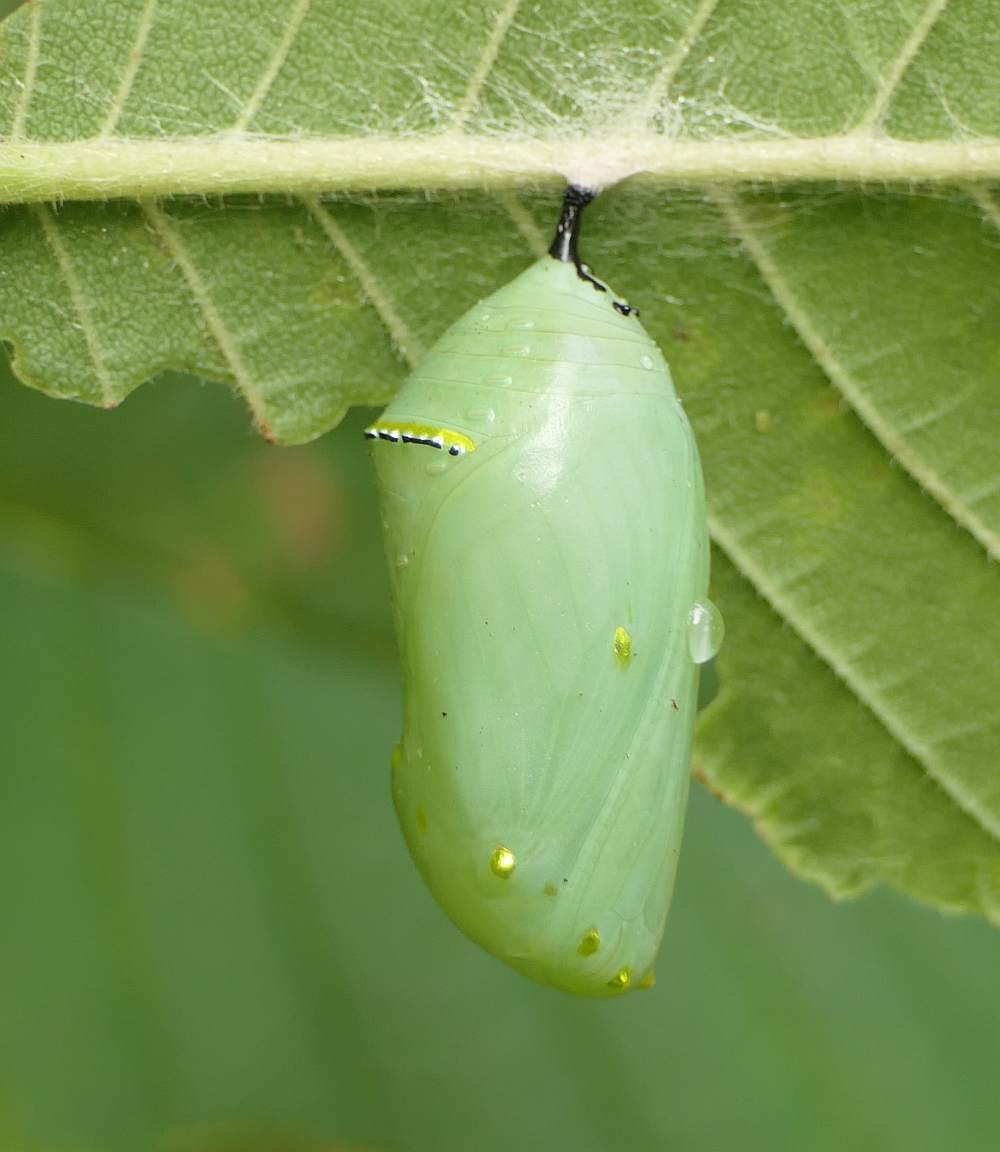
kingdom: Animalia
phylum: Arthropoda
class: Insecta
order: Lepidoptera
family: Nymphalidae
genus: Danaus
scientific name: Danaus plexippus
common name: Monarch
